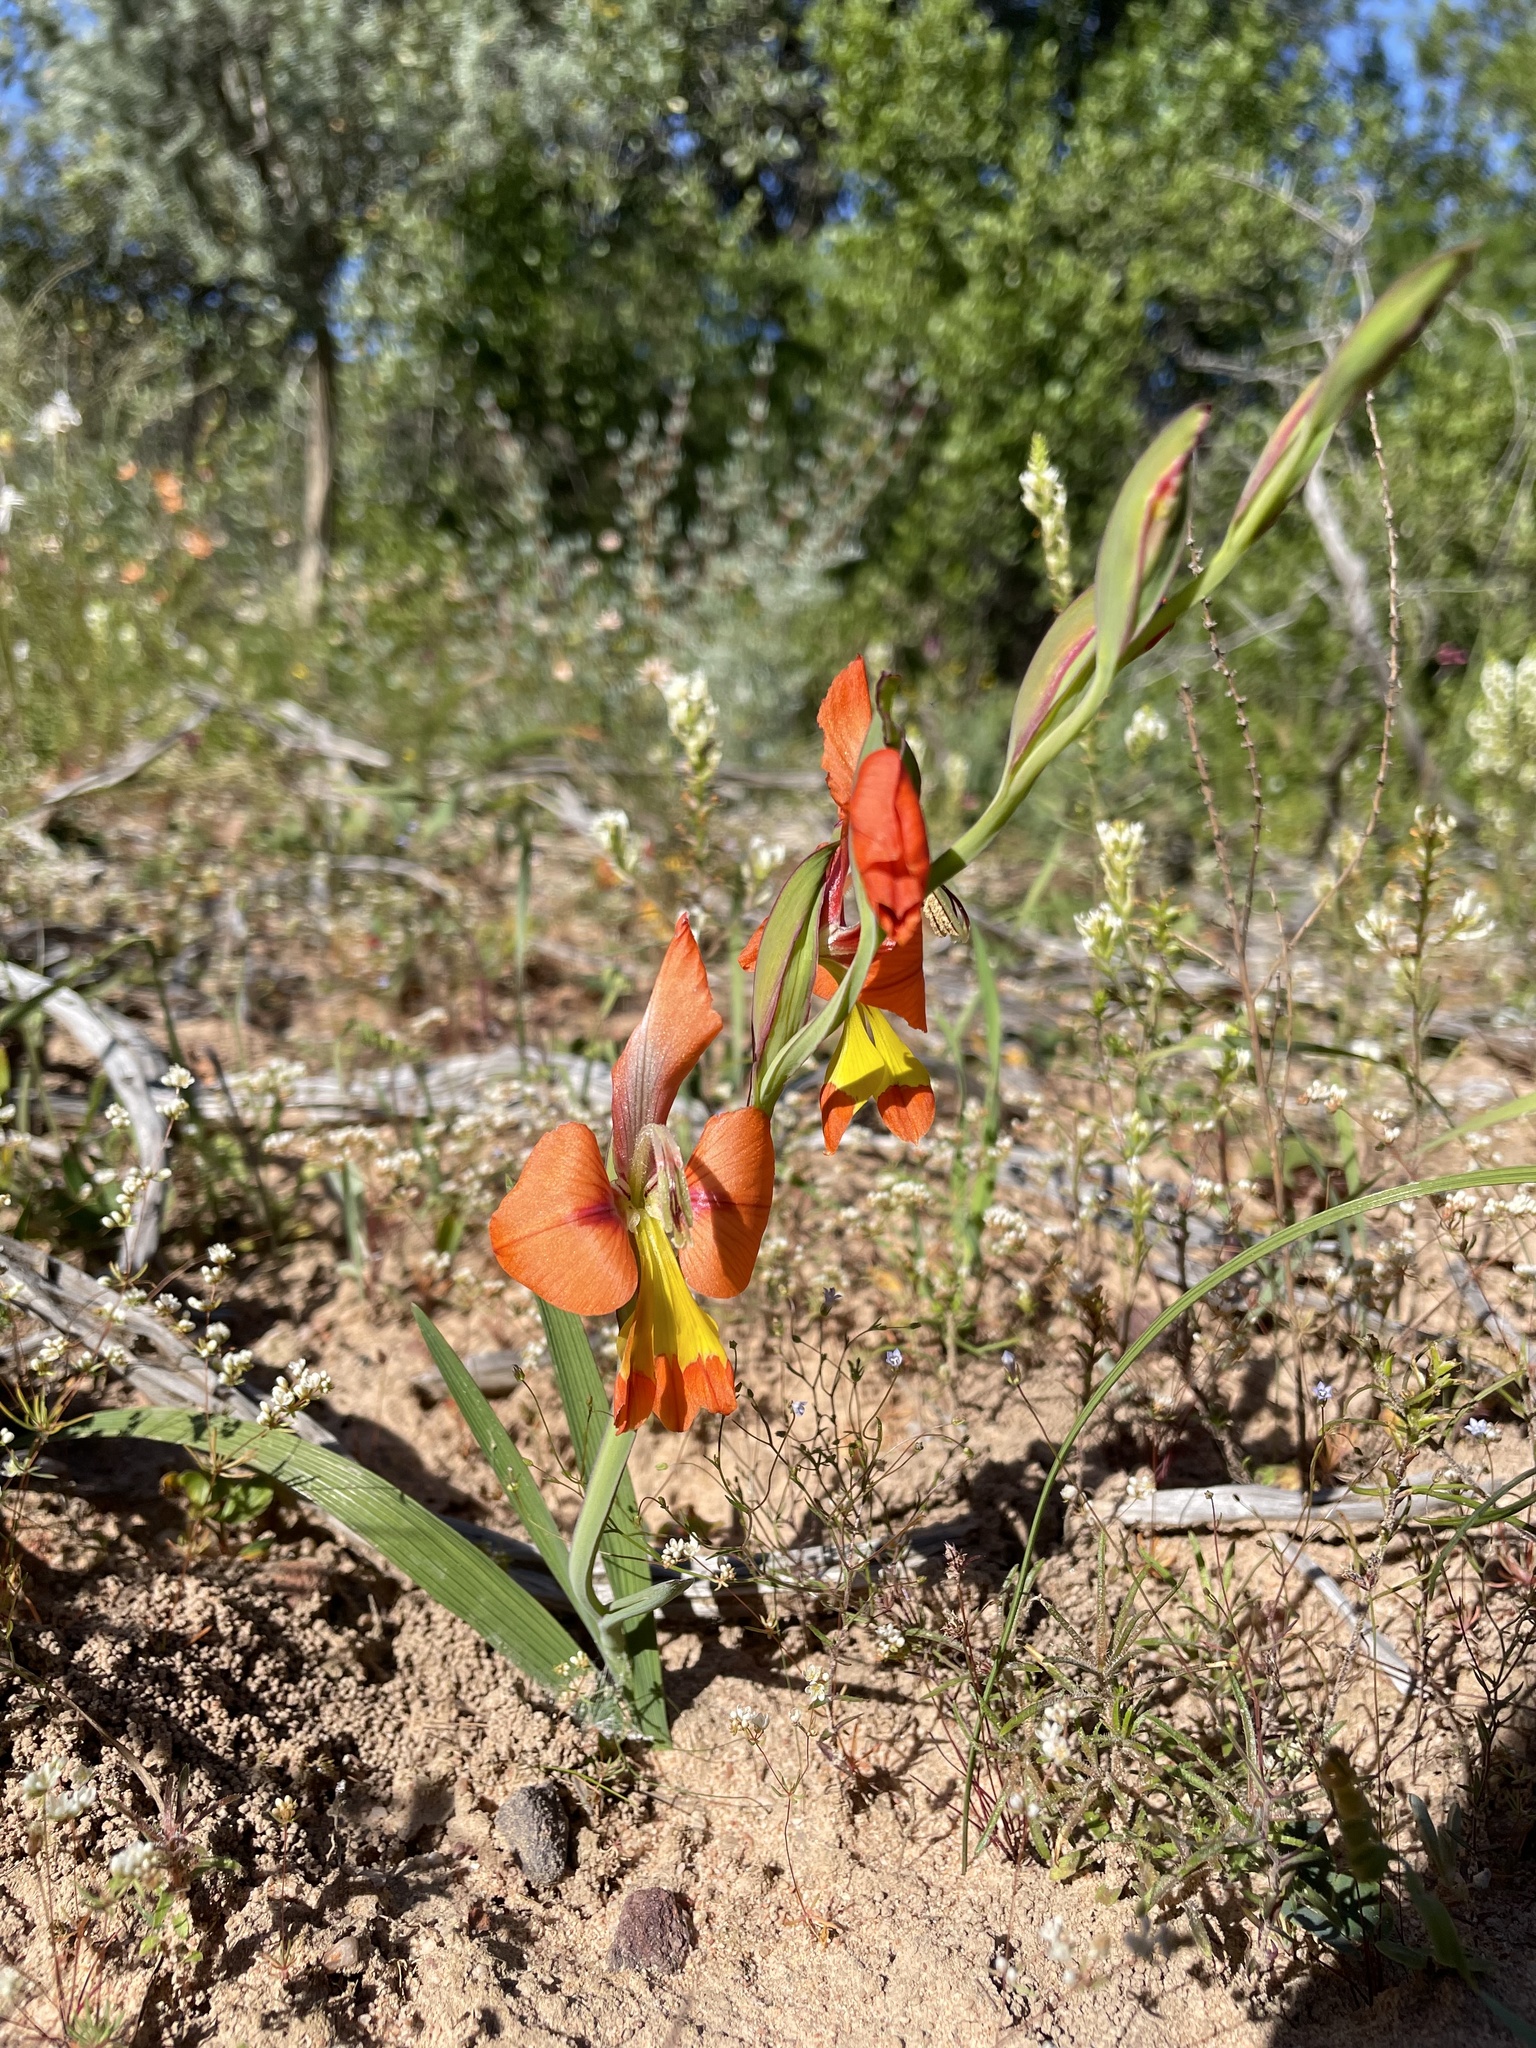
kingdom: Plantae
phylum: Tracheophyta
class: Liliopsida
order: Asparagales
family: Iridaceae
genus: Gladiolus
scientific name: Gladiolus alatus
